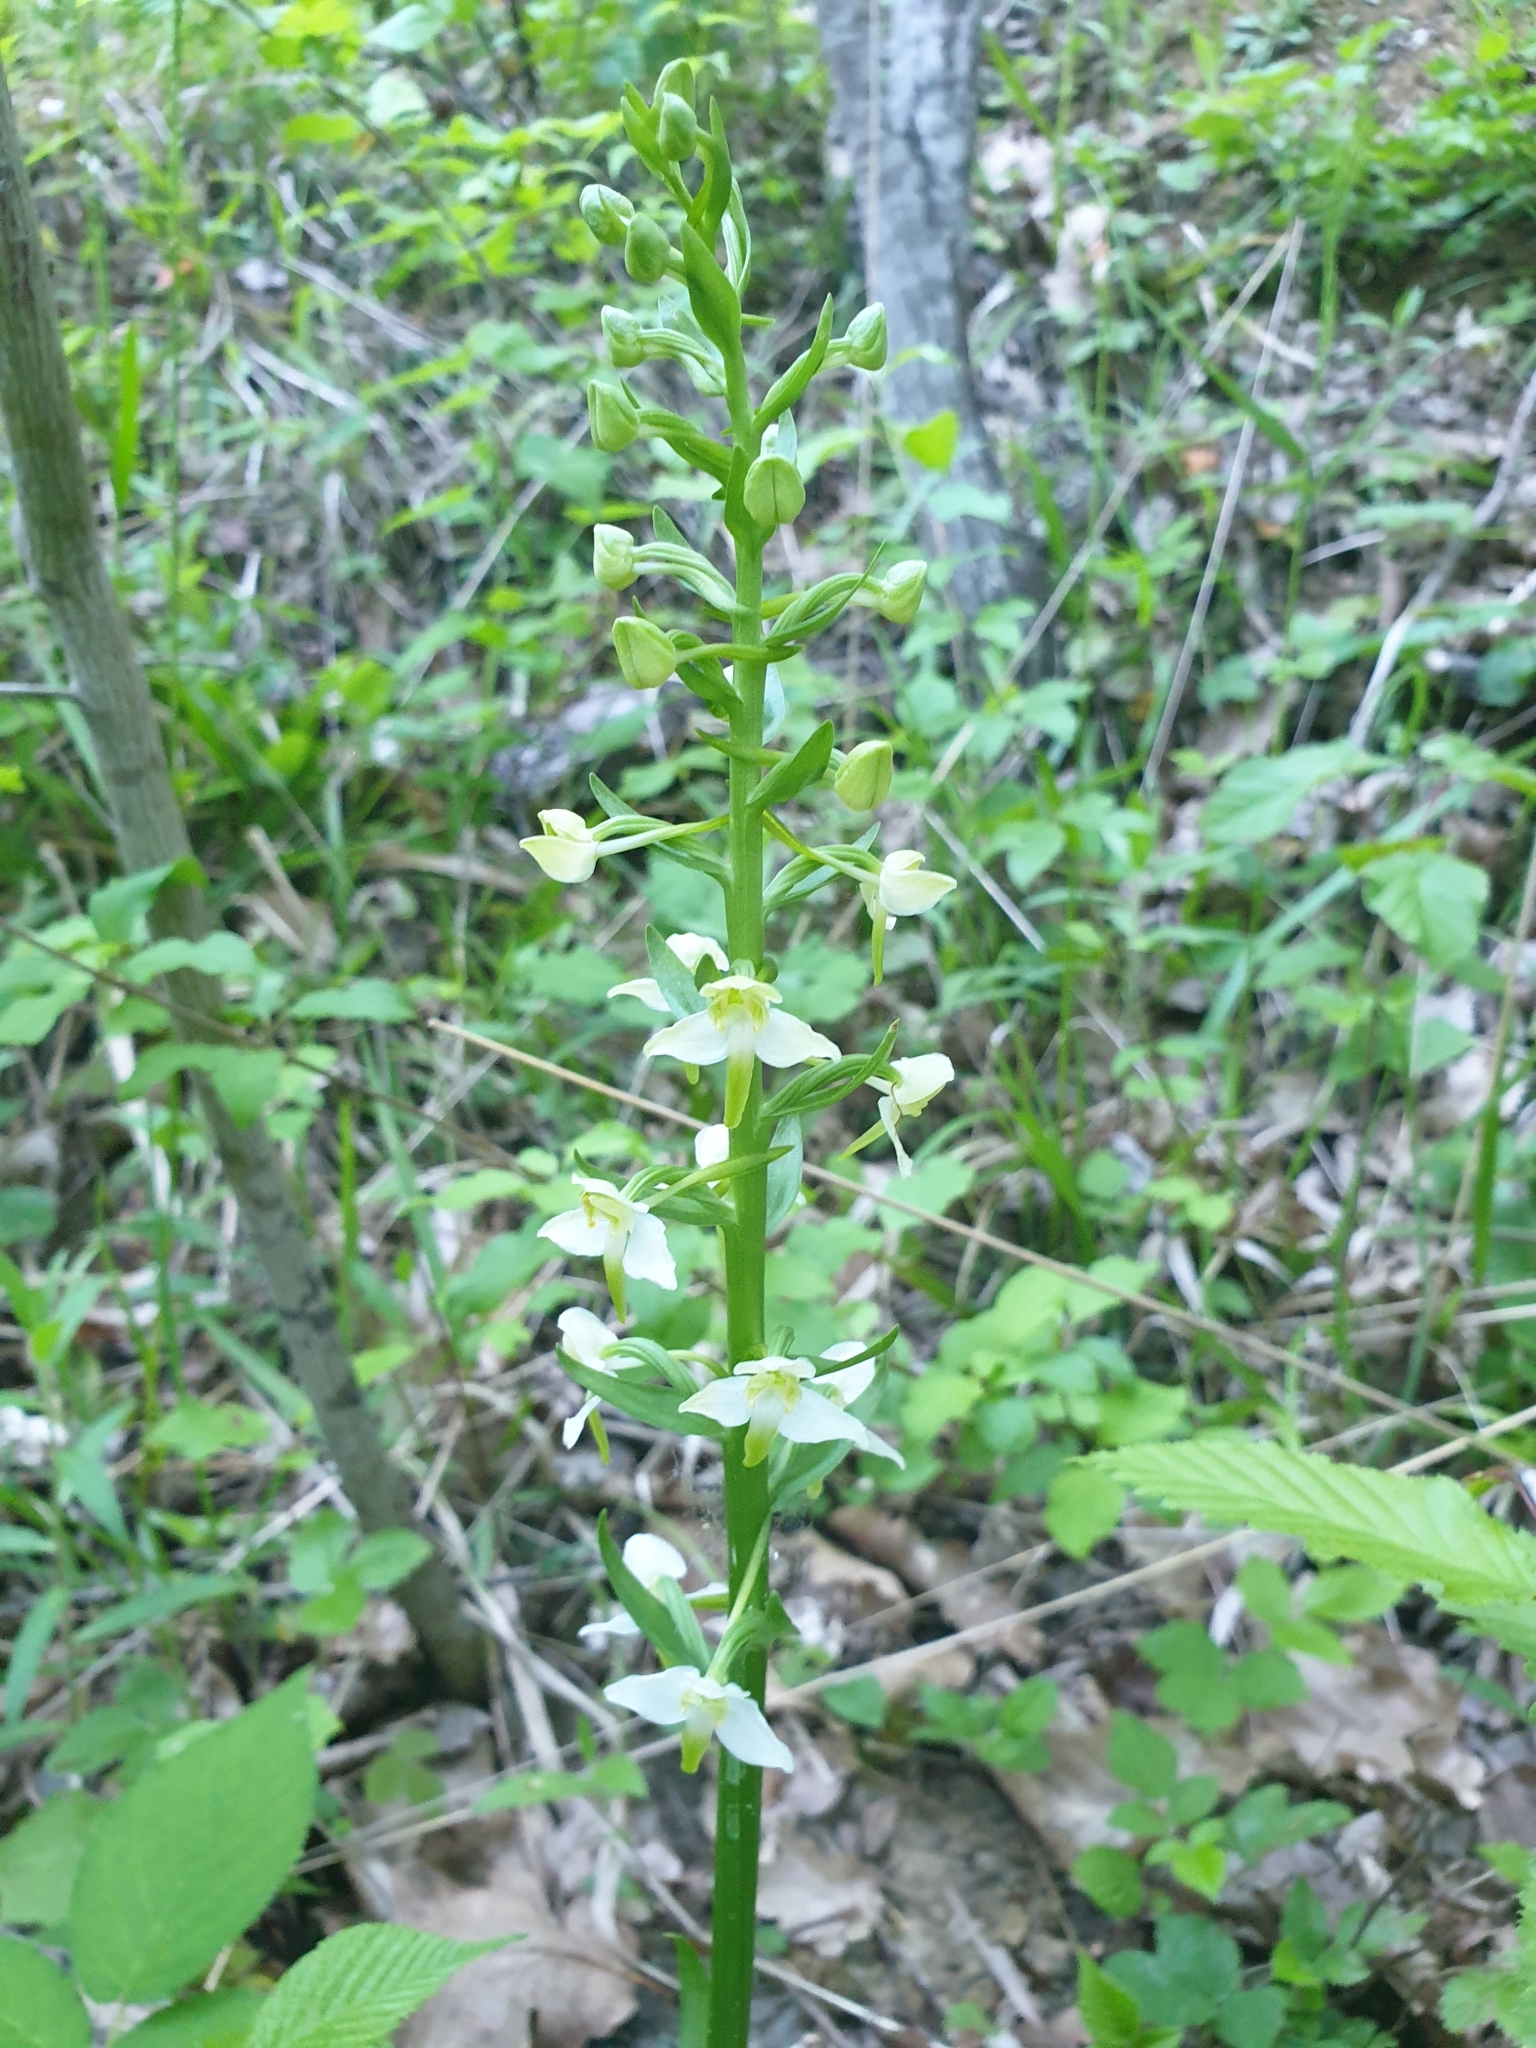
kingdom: Plantae
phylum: Tracheophyta
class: Liliopsida
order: Asparagales
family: Orchidaceae
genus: Platanthera
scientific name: Platanthera chlorantha
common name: Greater butterfly-orchid
